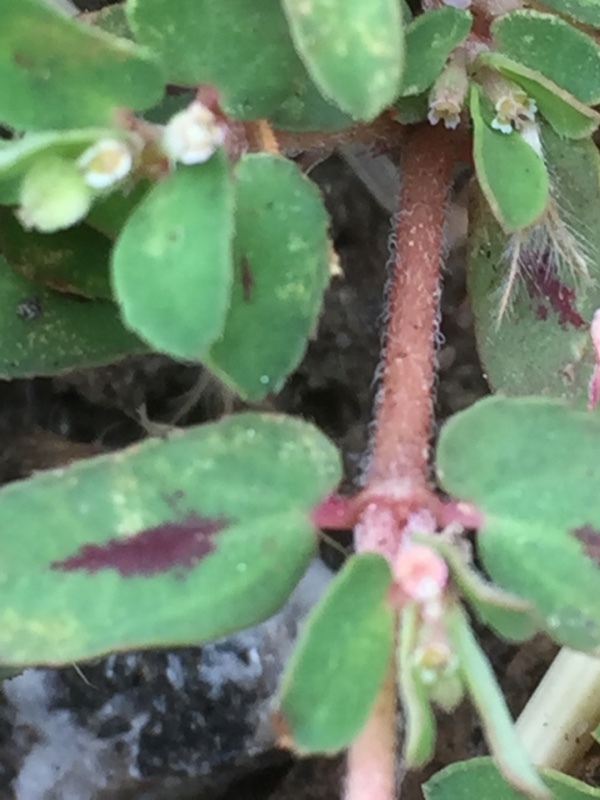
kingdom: Plantae
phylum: Tracheophyta
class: Magnoliopsida
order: Malpighiales
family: Euphorbiaceae
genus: Euphorbia
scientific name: Euphorbia maculata
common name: Spotted spurge
